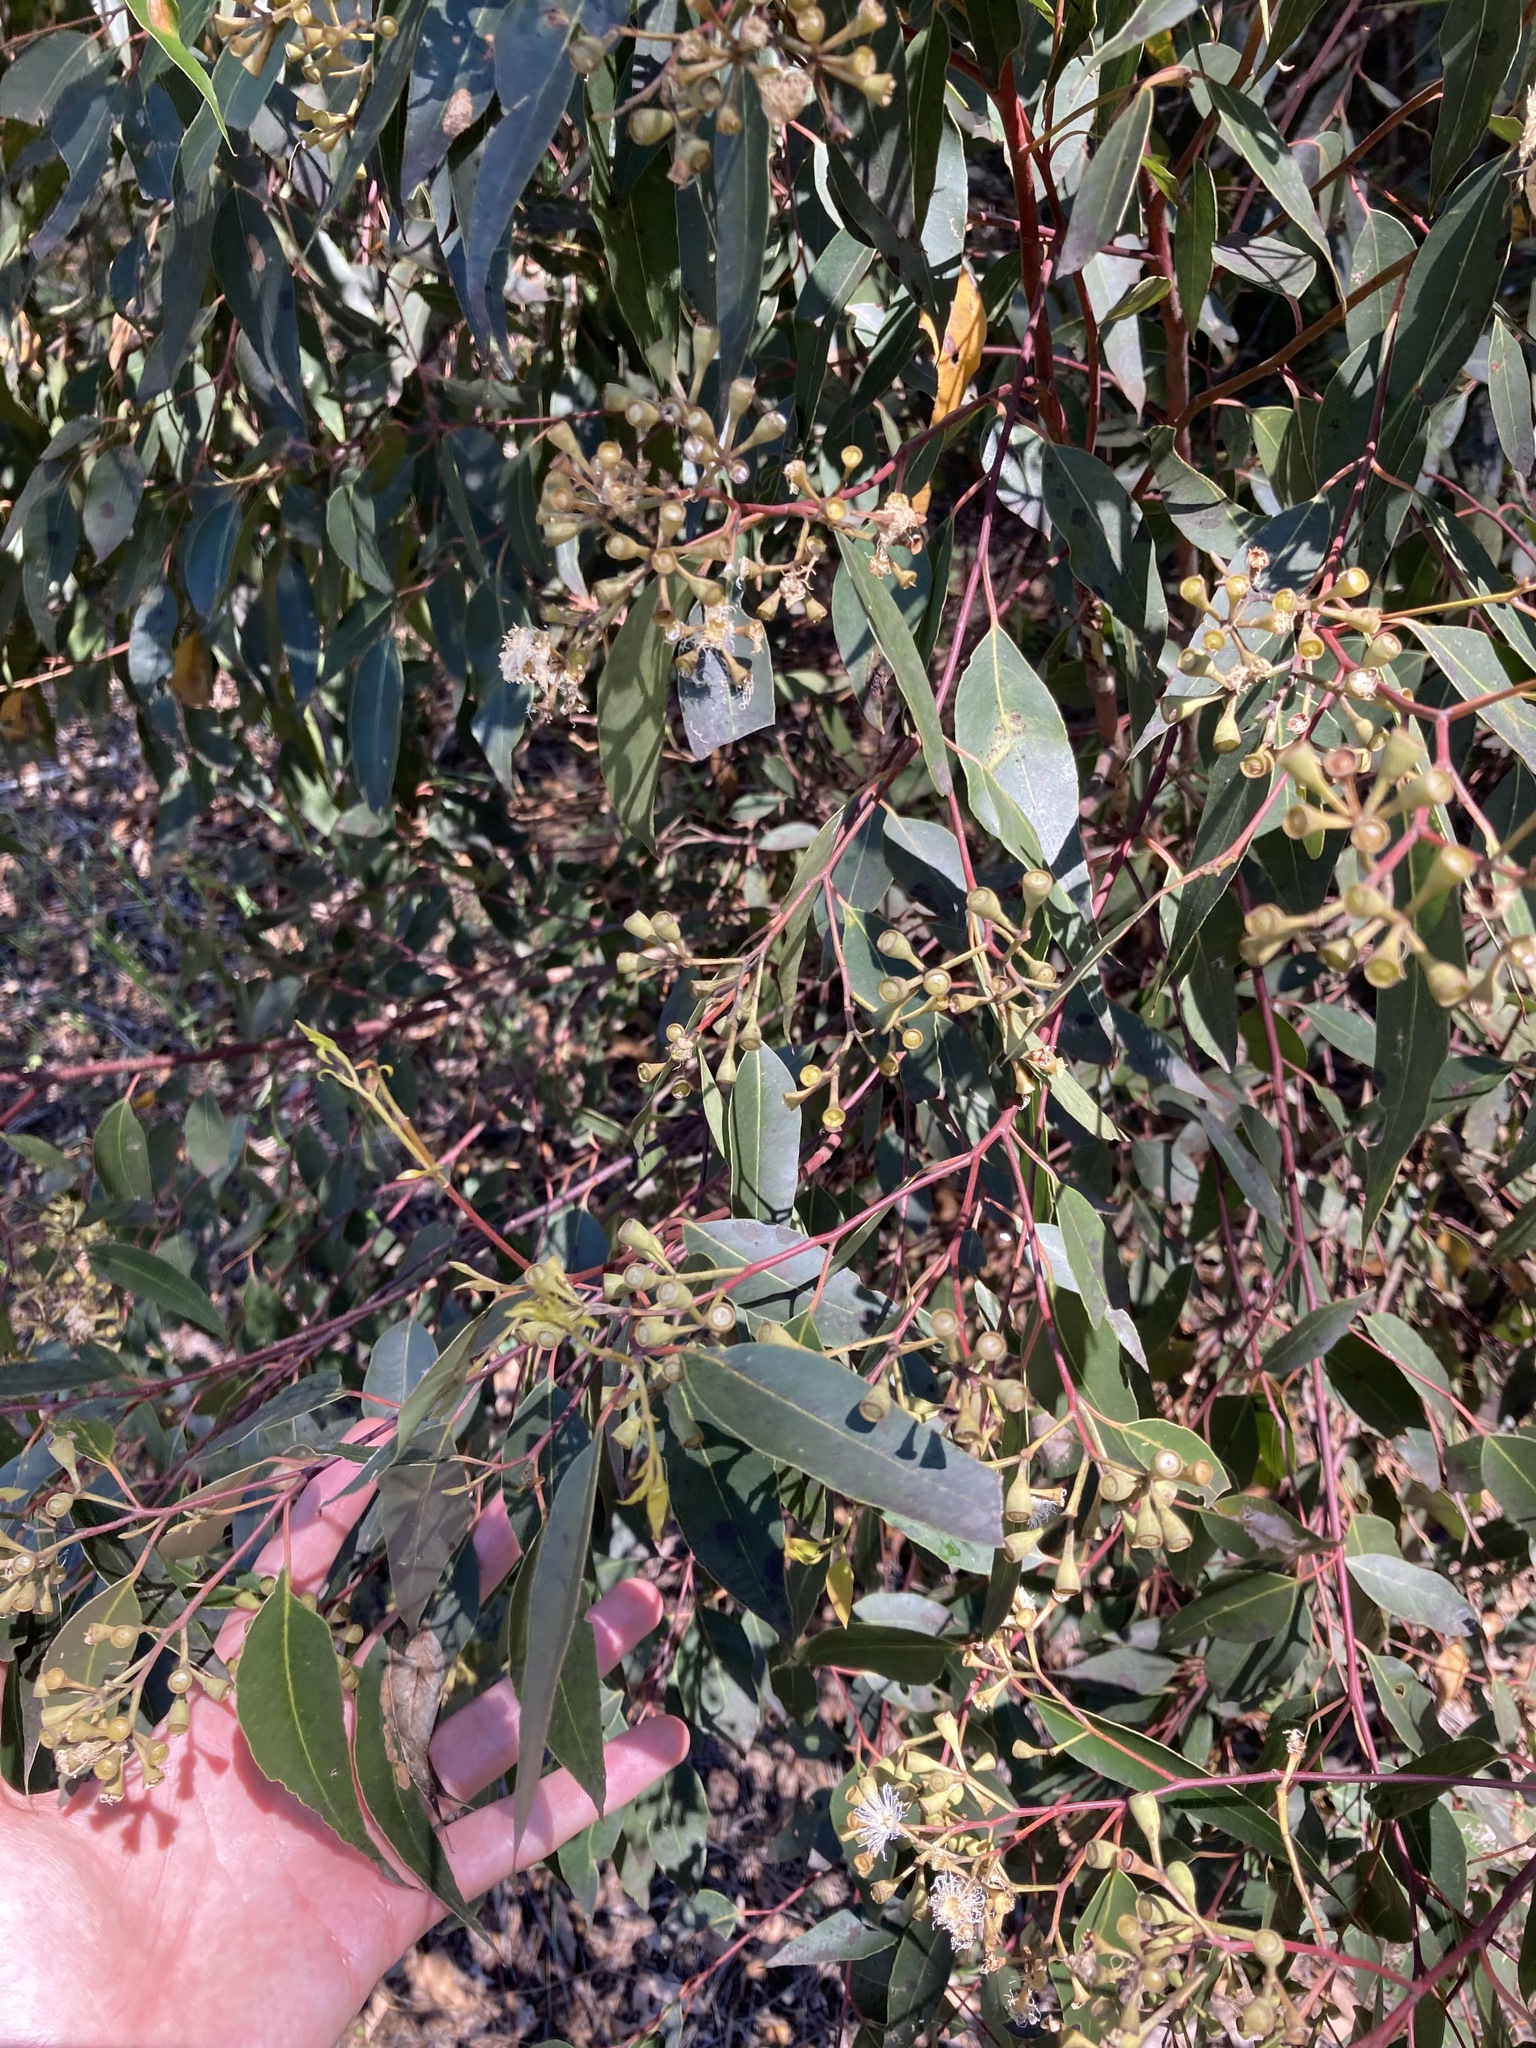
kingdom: Plantae
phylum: Tracheophyta
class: Magnoliopsida
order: Myrtales
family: Myrtaceae
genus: Eucalyptus
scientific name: Eucalyptus microcorys
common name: Tallowwood
